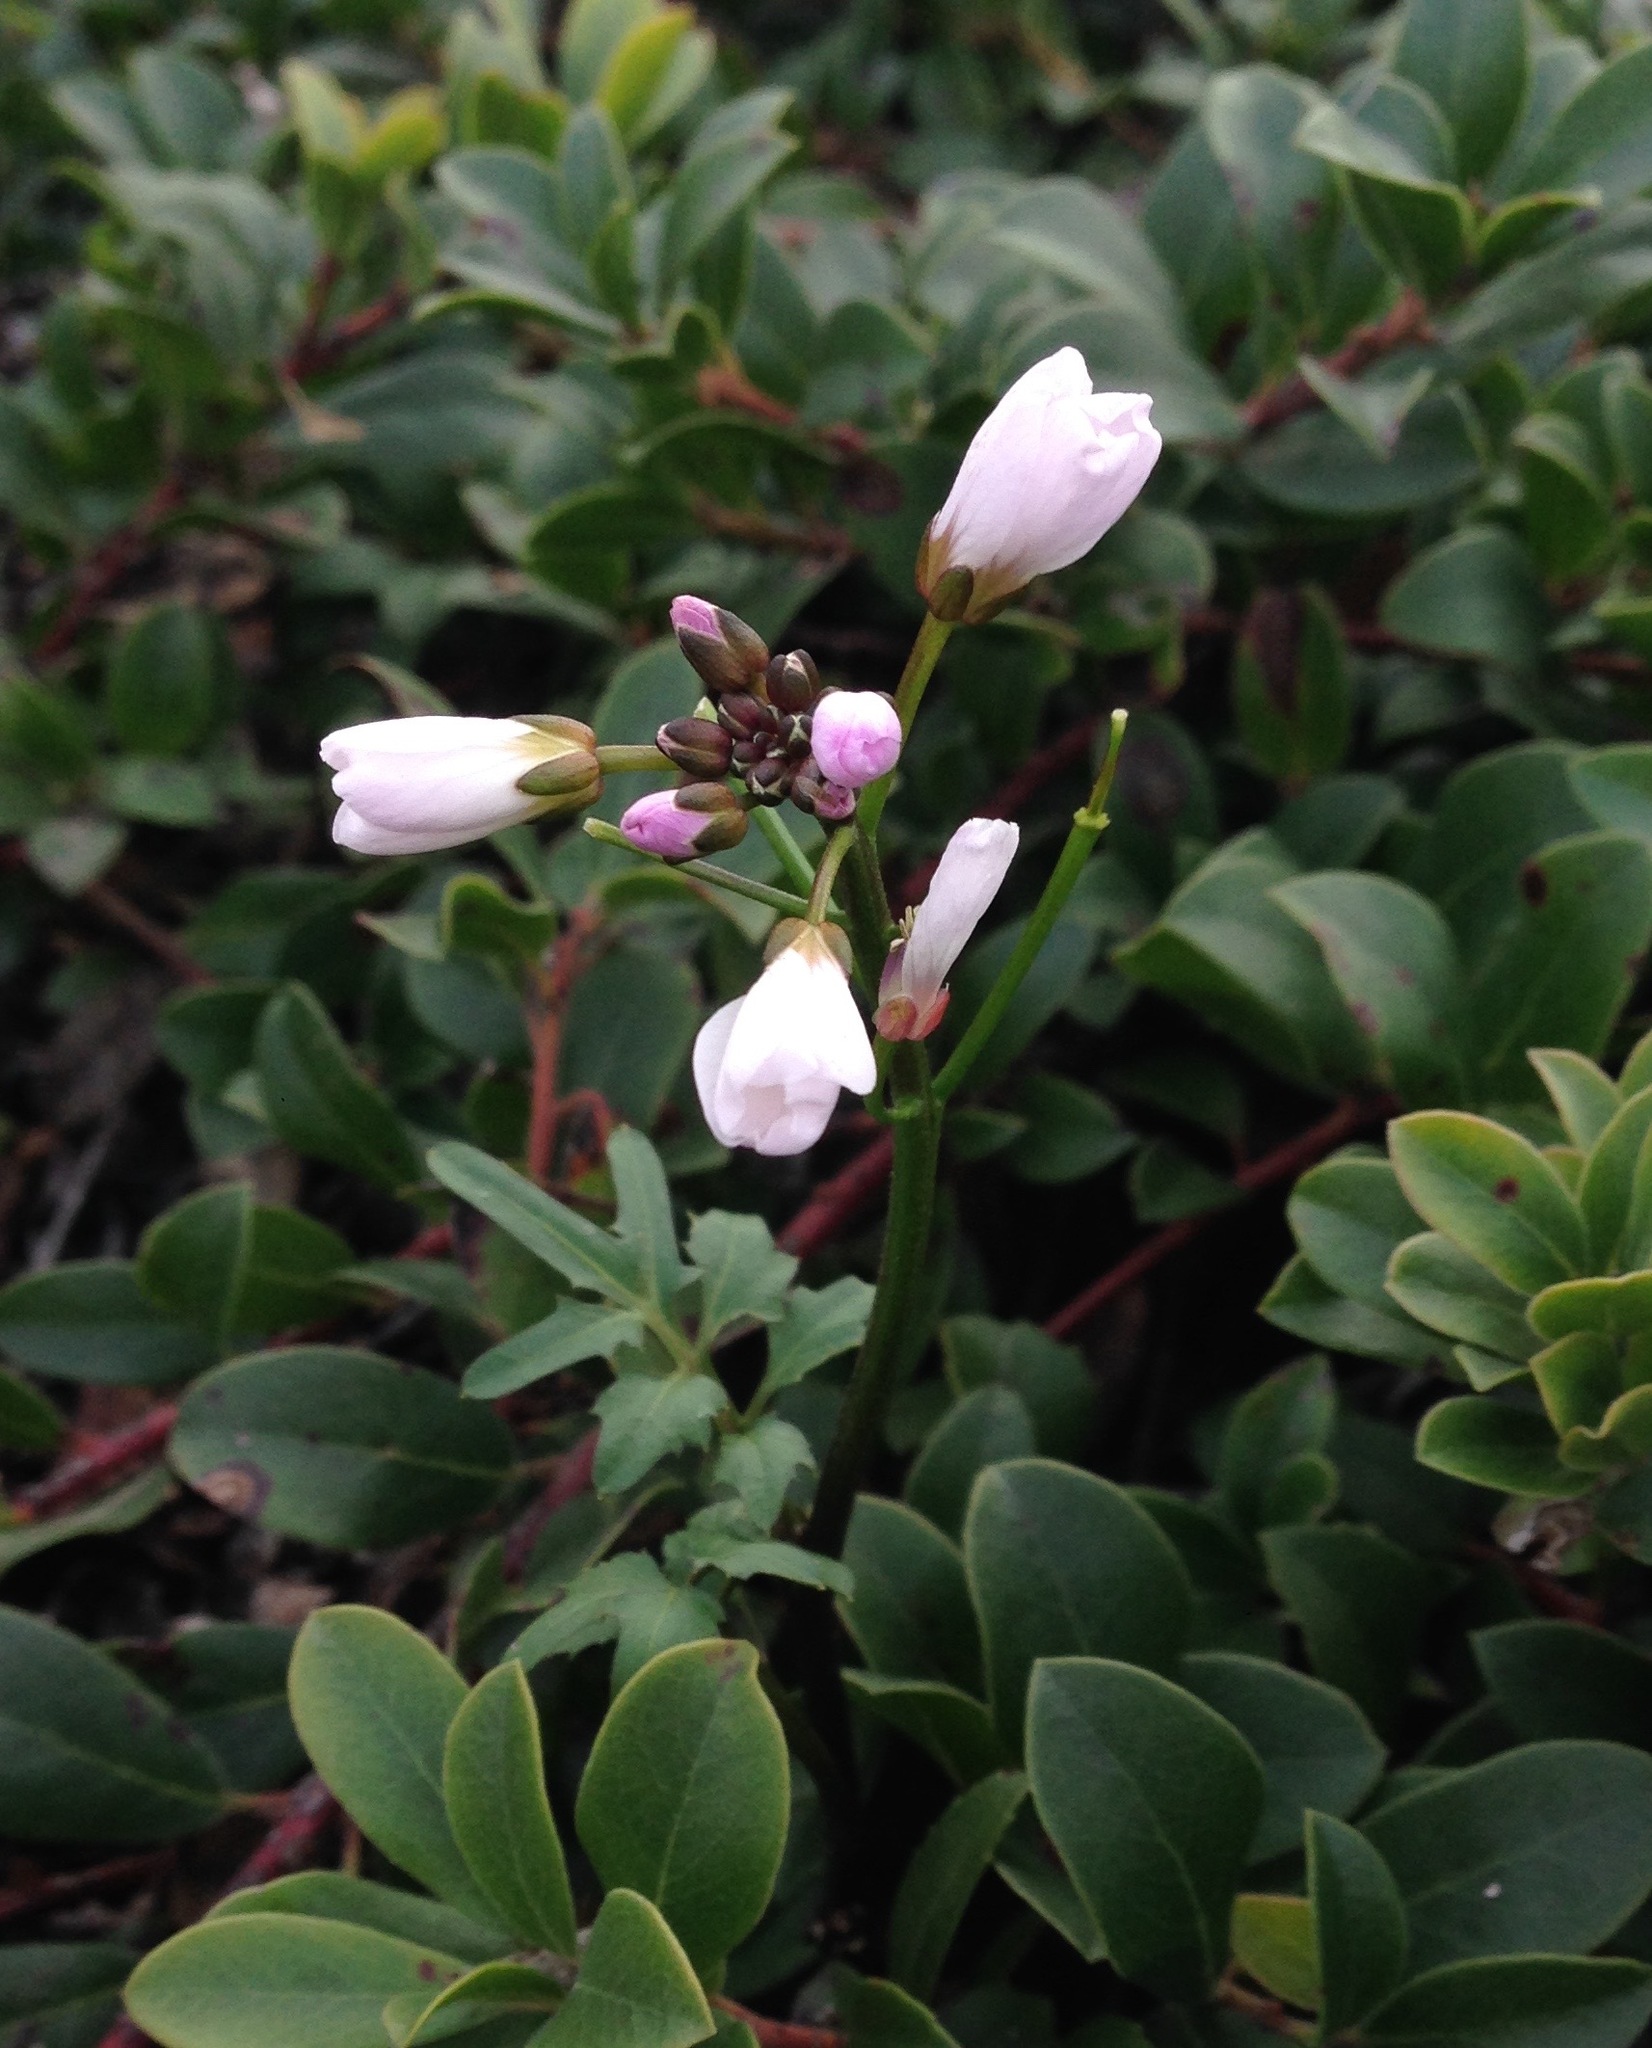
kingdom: Plantae
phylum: Tracheophyta
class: Magnoliopsida
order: Brassicales
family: Brassicaceae
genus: Cardamine
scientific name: Cardamine californica
